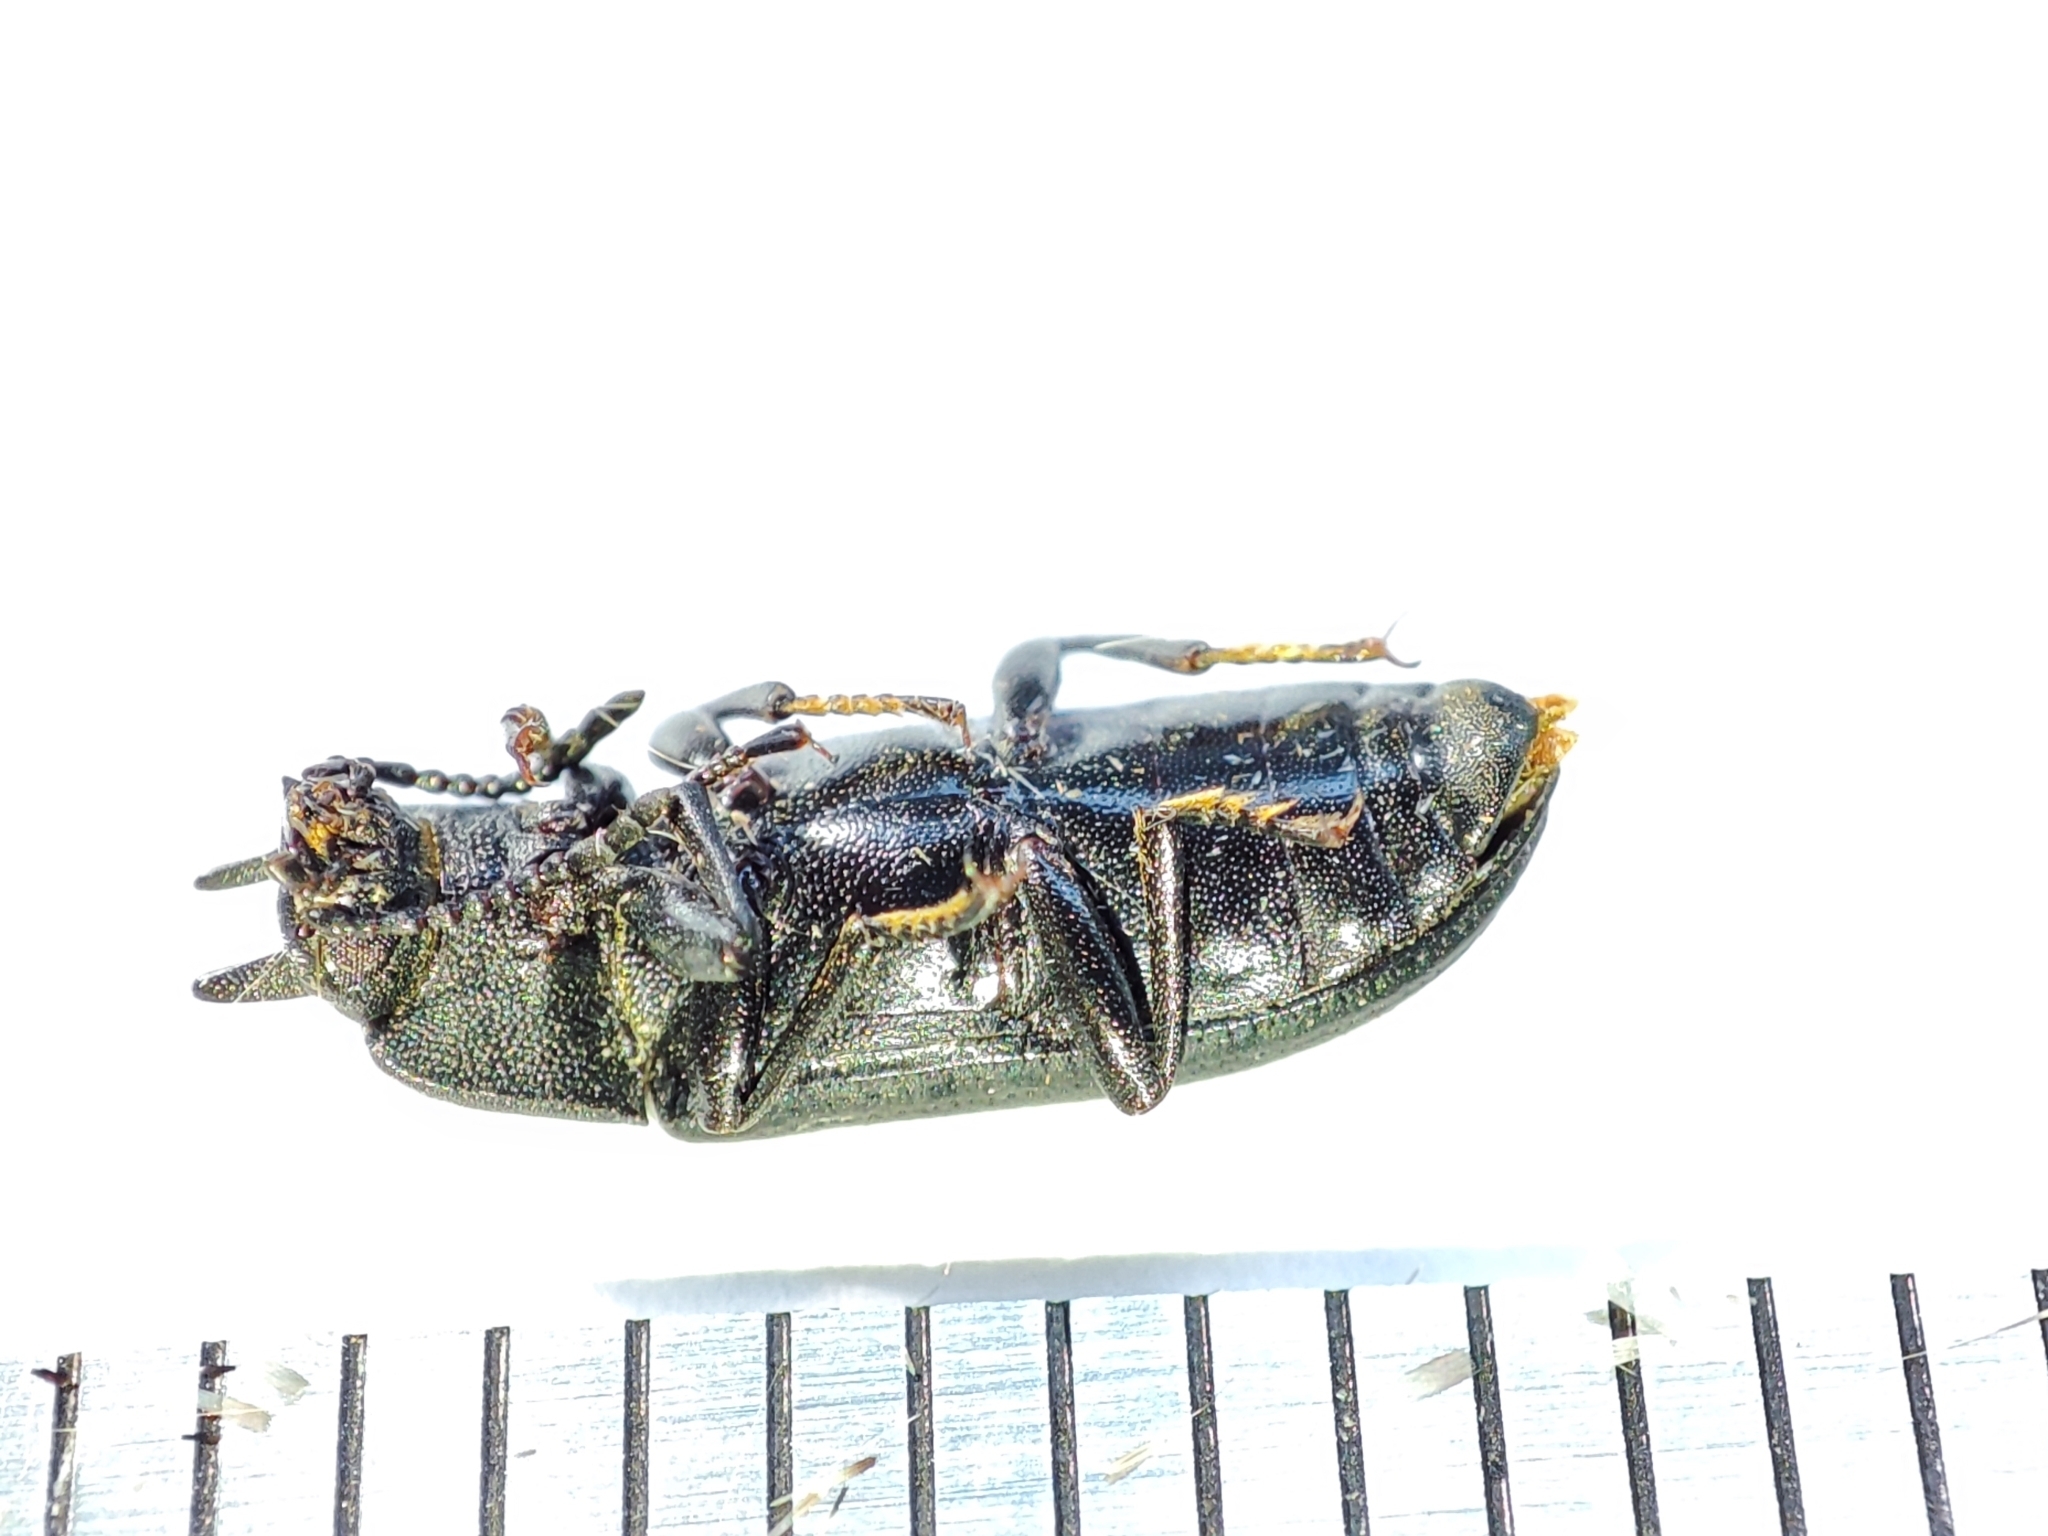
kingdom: Animalia
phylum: Arthropoda
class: Insecta
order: Coleoptera
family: Tenebrionidae
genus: Cryphaeus
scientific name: Cryphaeus cornutus
